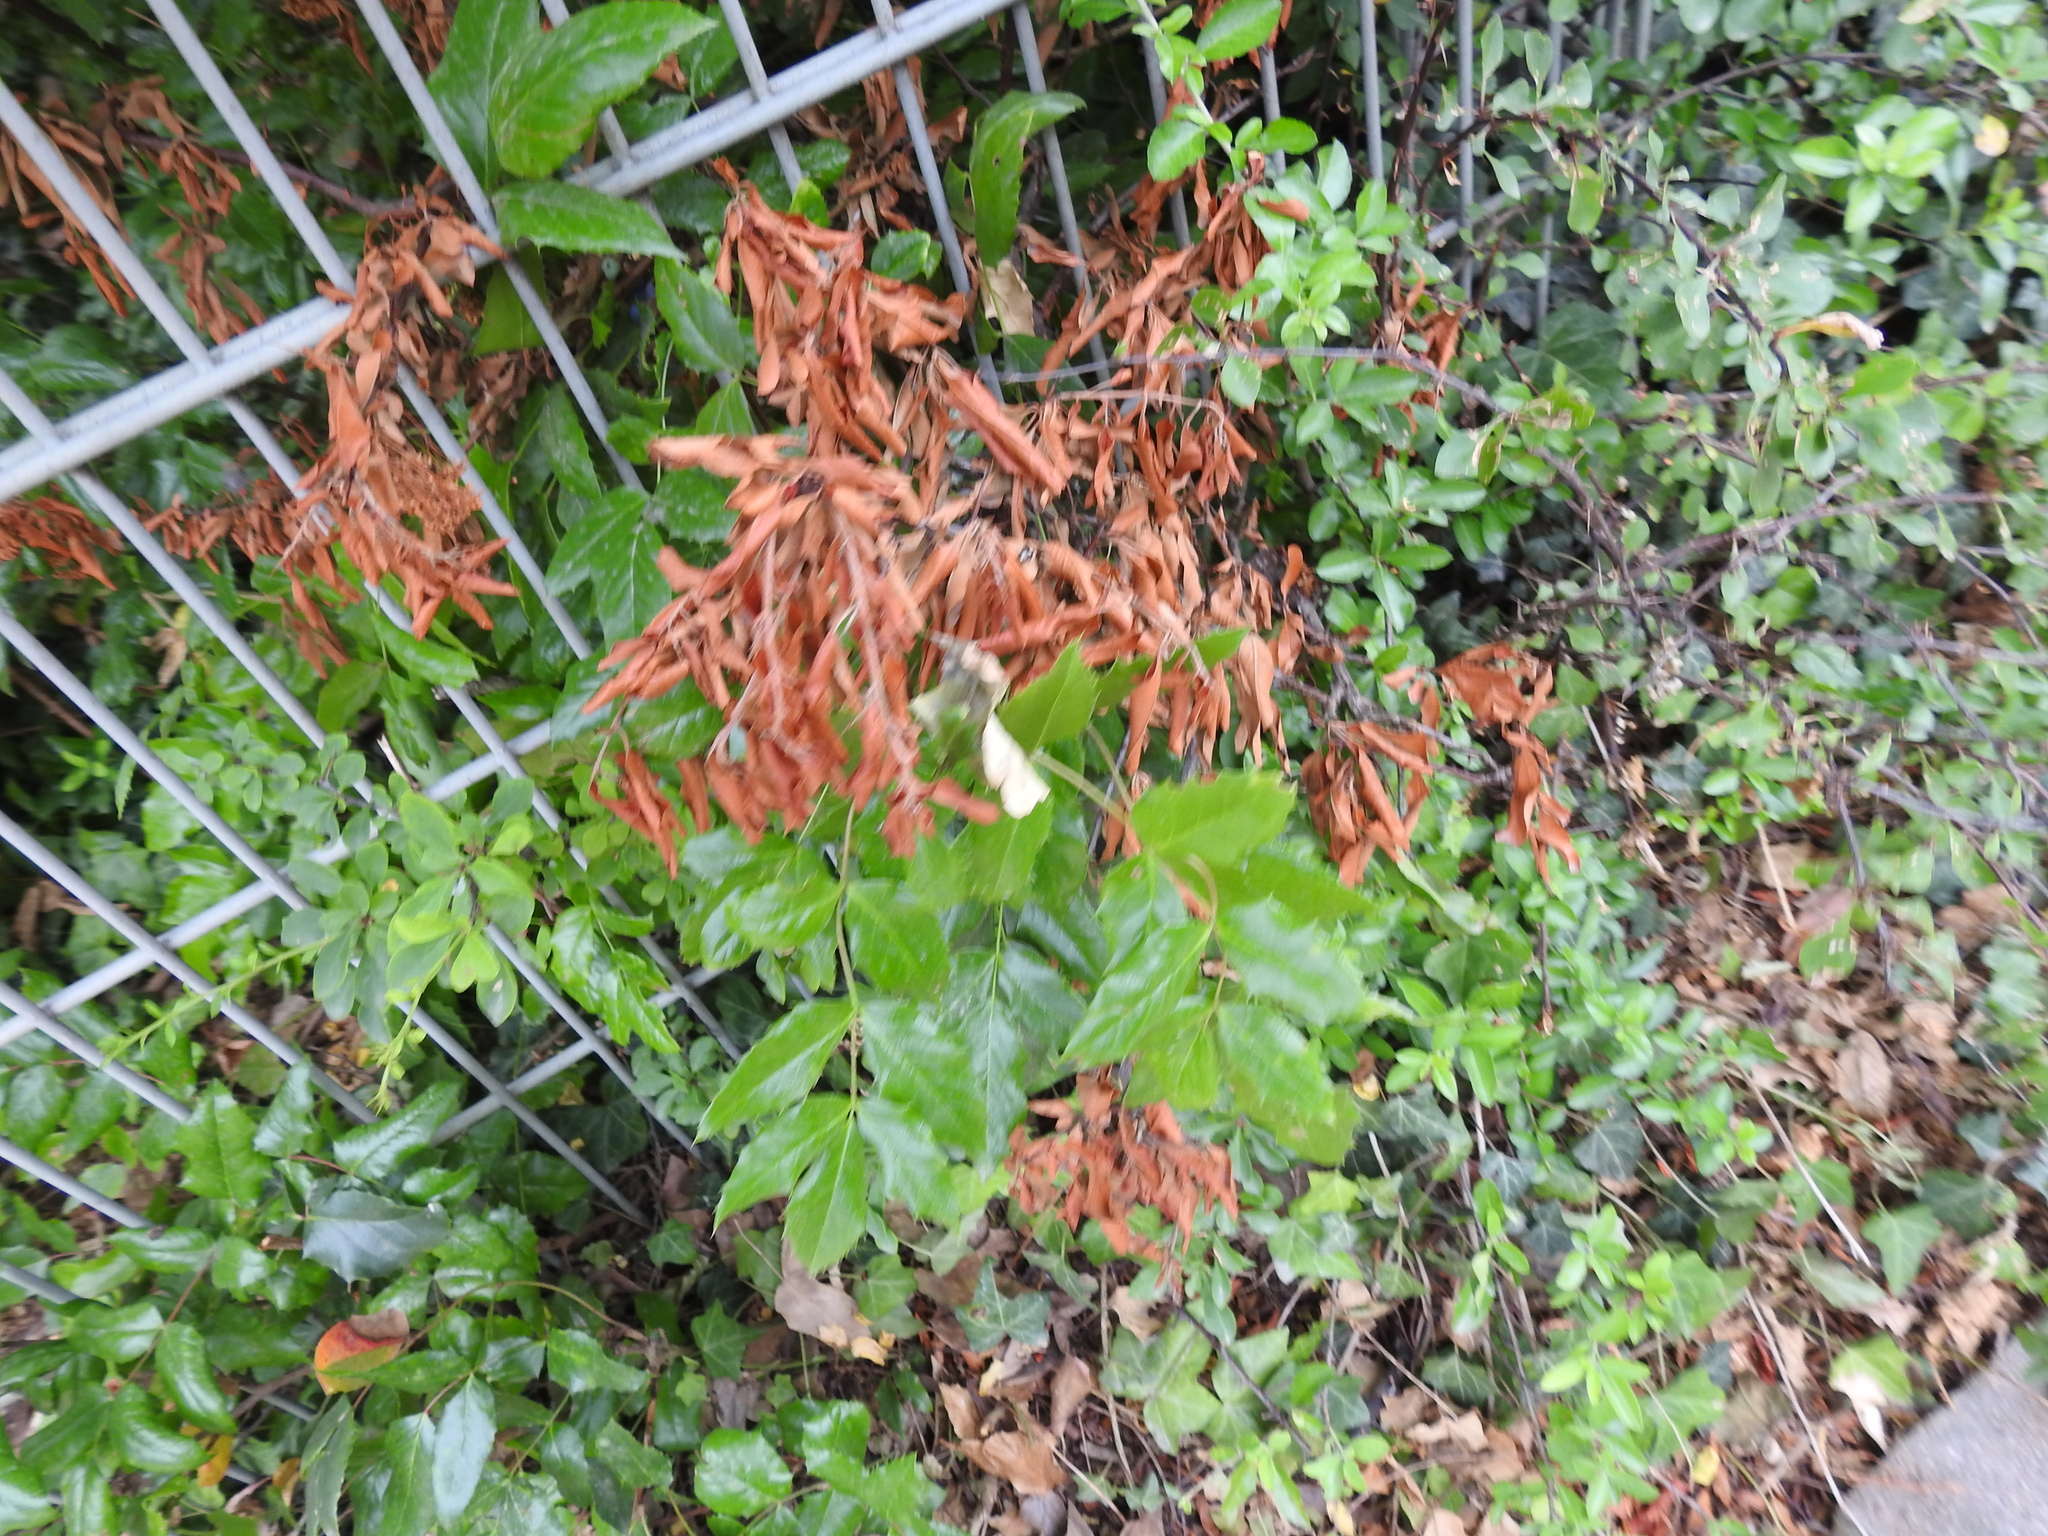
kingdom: Plantae
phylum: Tracheophyta
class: Magnoliopsida
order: Ranunculales
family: Berberidaceae
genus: Mahonia
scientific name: Mahonia aquifolium
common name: Oregon-grape
